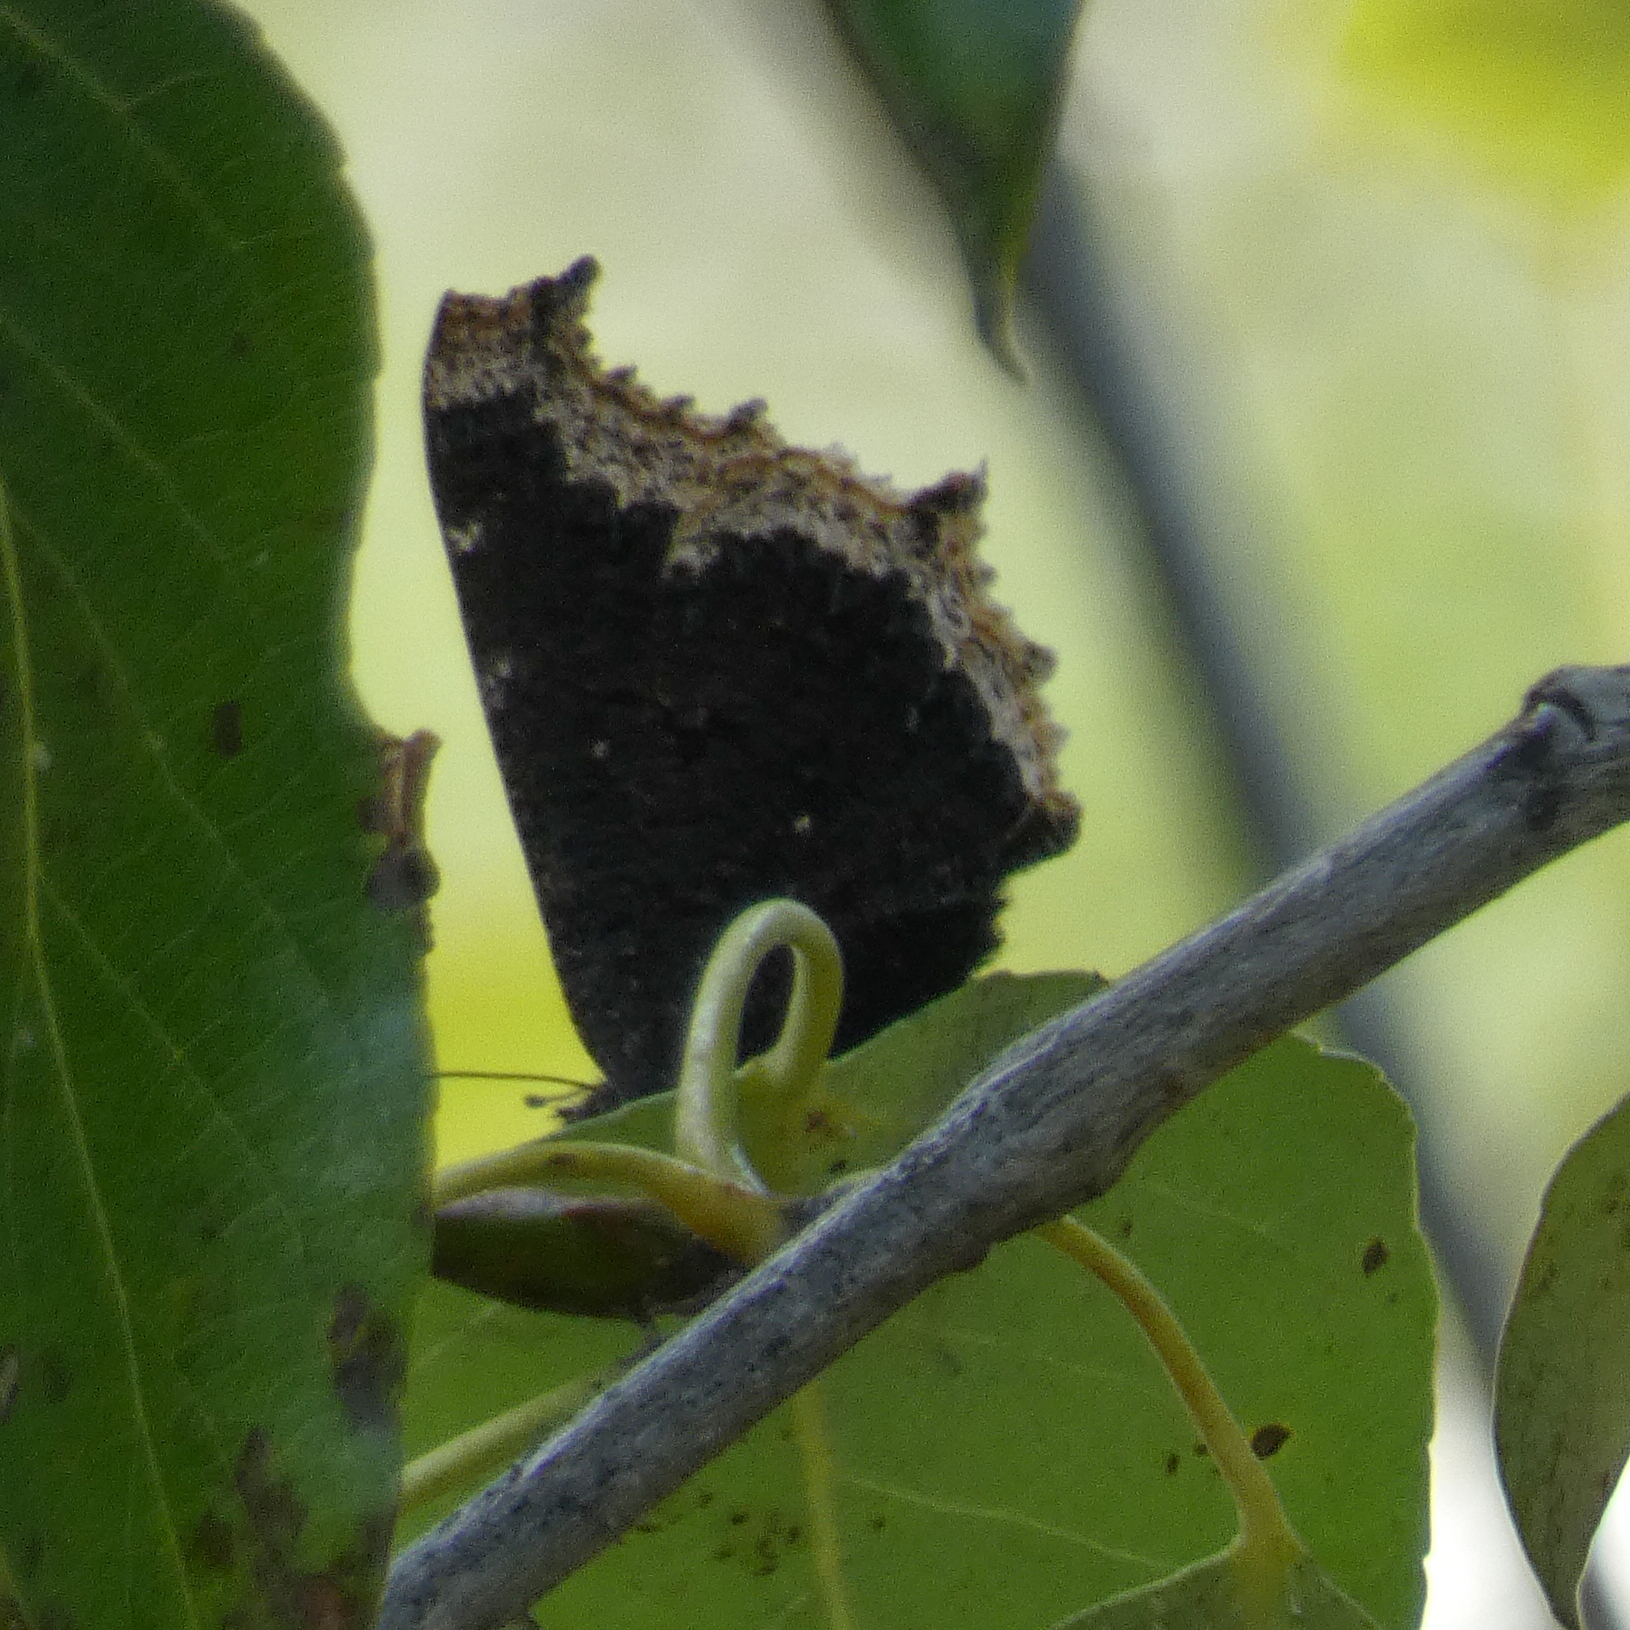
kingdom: Animalia
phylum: Arthropoda
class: Insecta
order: Lepidoptera
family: Nymphalidae
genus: Nymphalis
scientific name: Nymphalis antiopa
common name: Camberwell beauty
